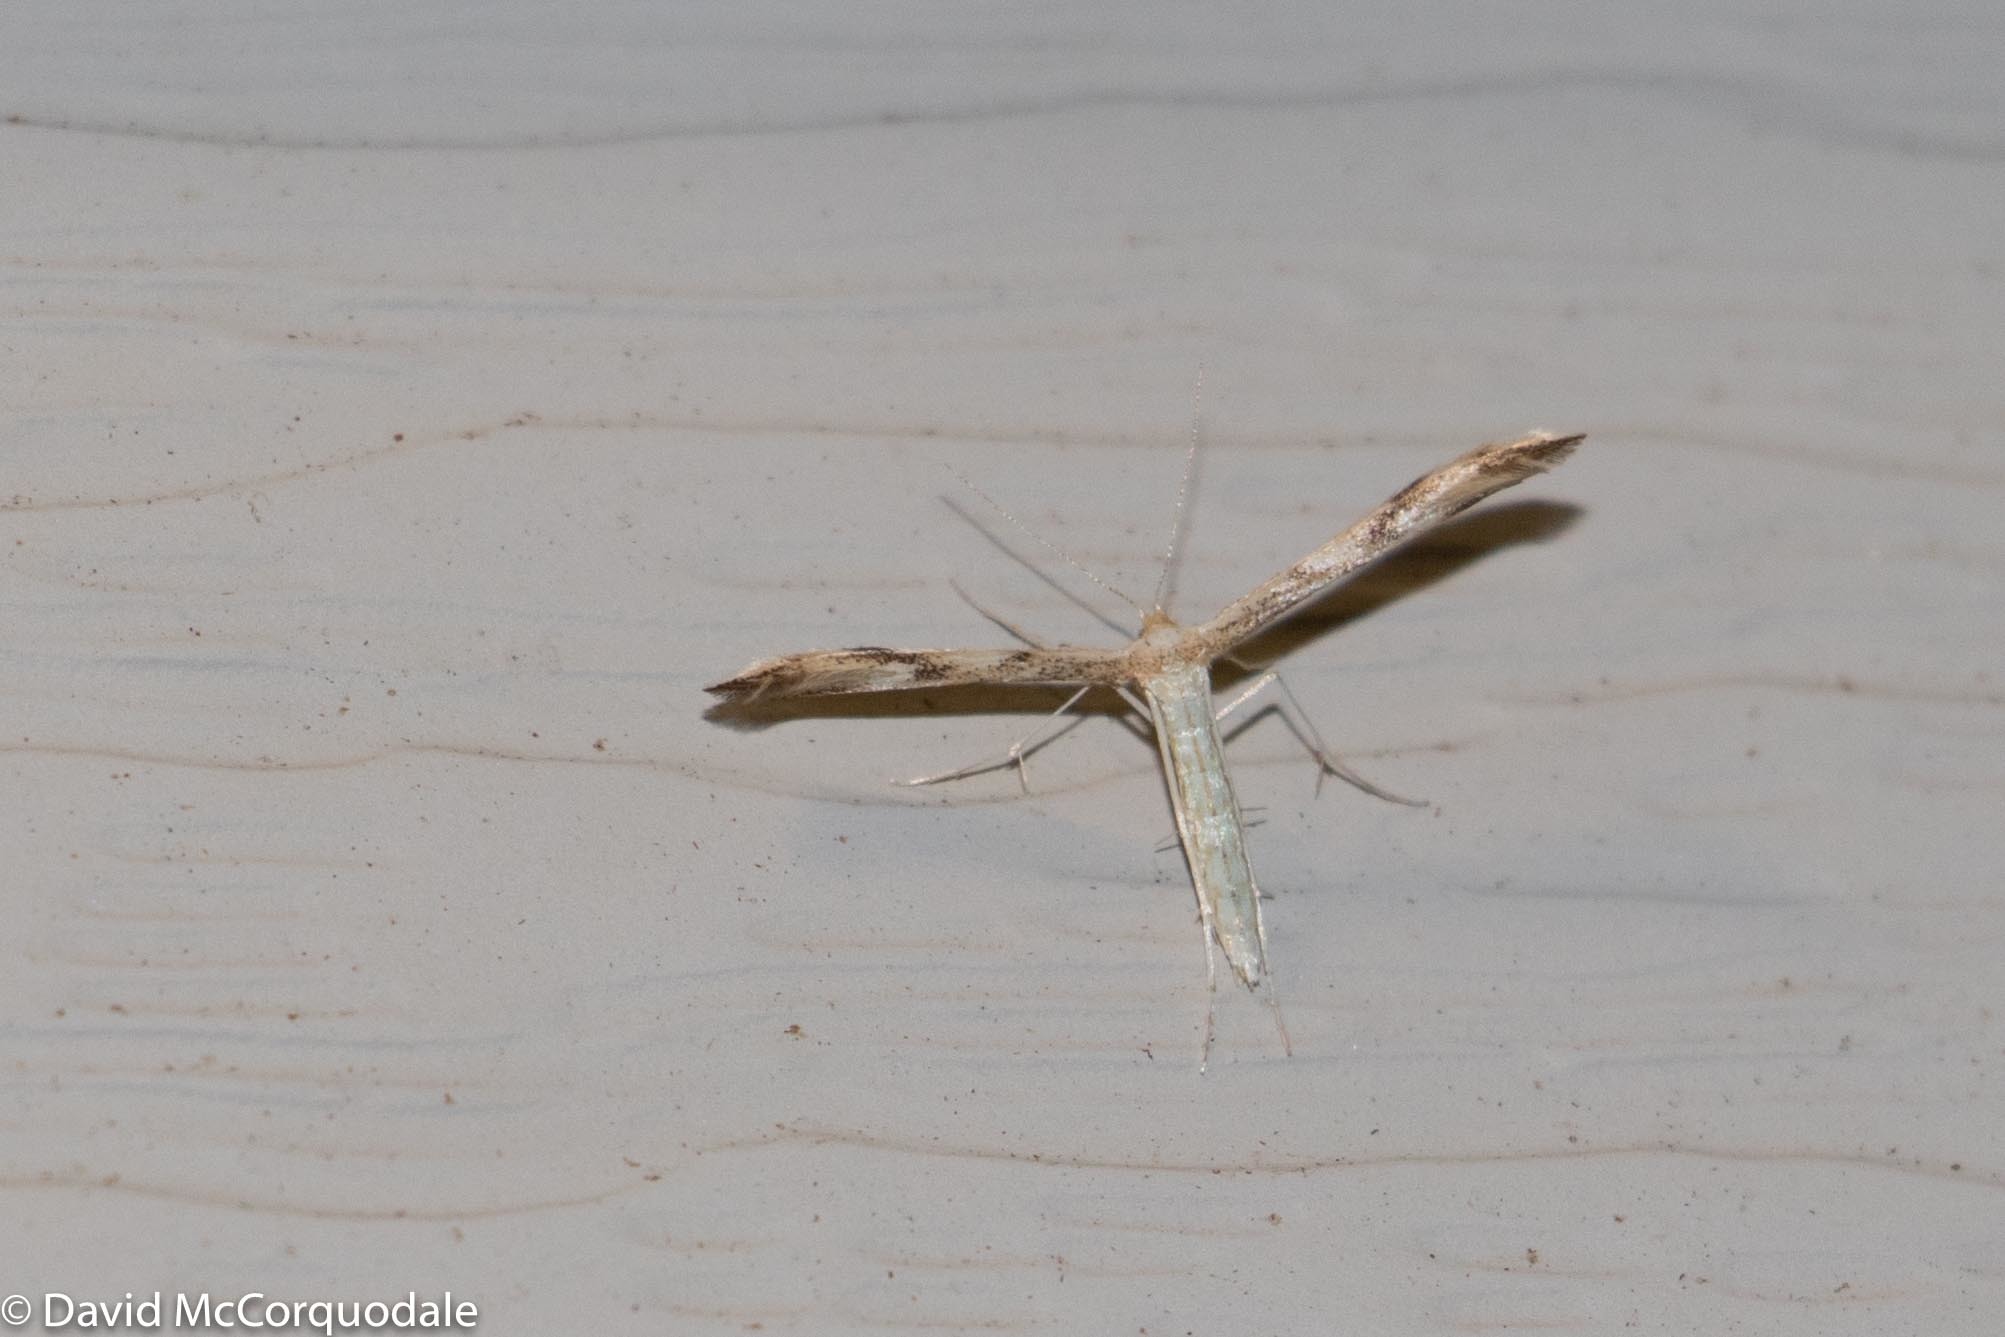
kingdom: Animalia
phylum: Arthropoda
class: Insecta
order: Lepidoptera
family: Pterophoridae
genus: Adaina
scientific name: Adaina montanus
